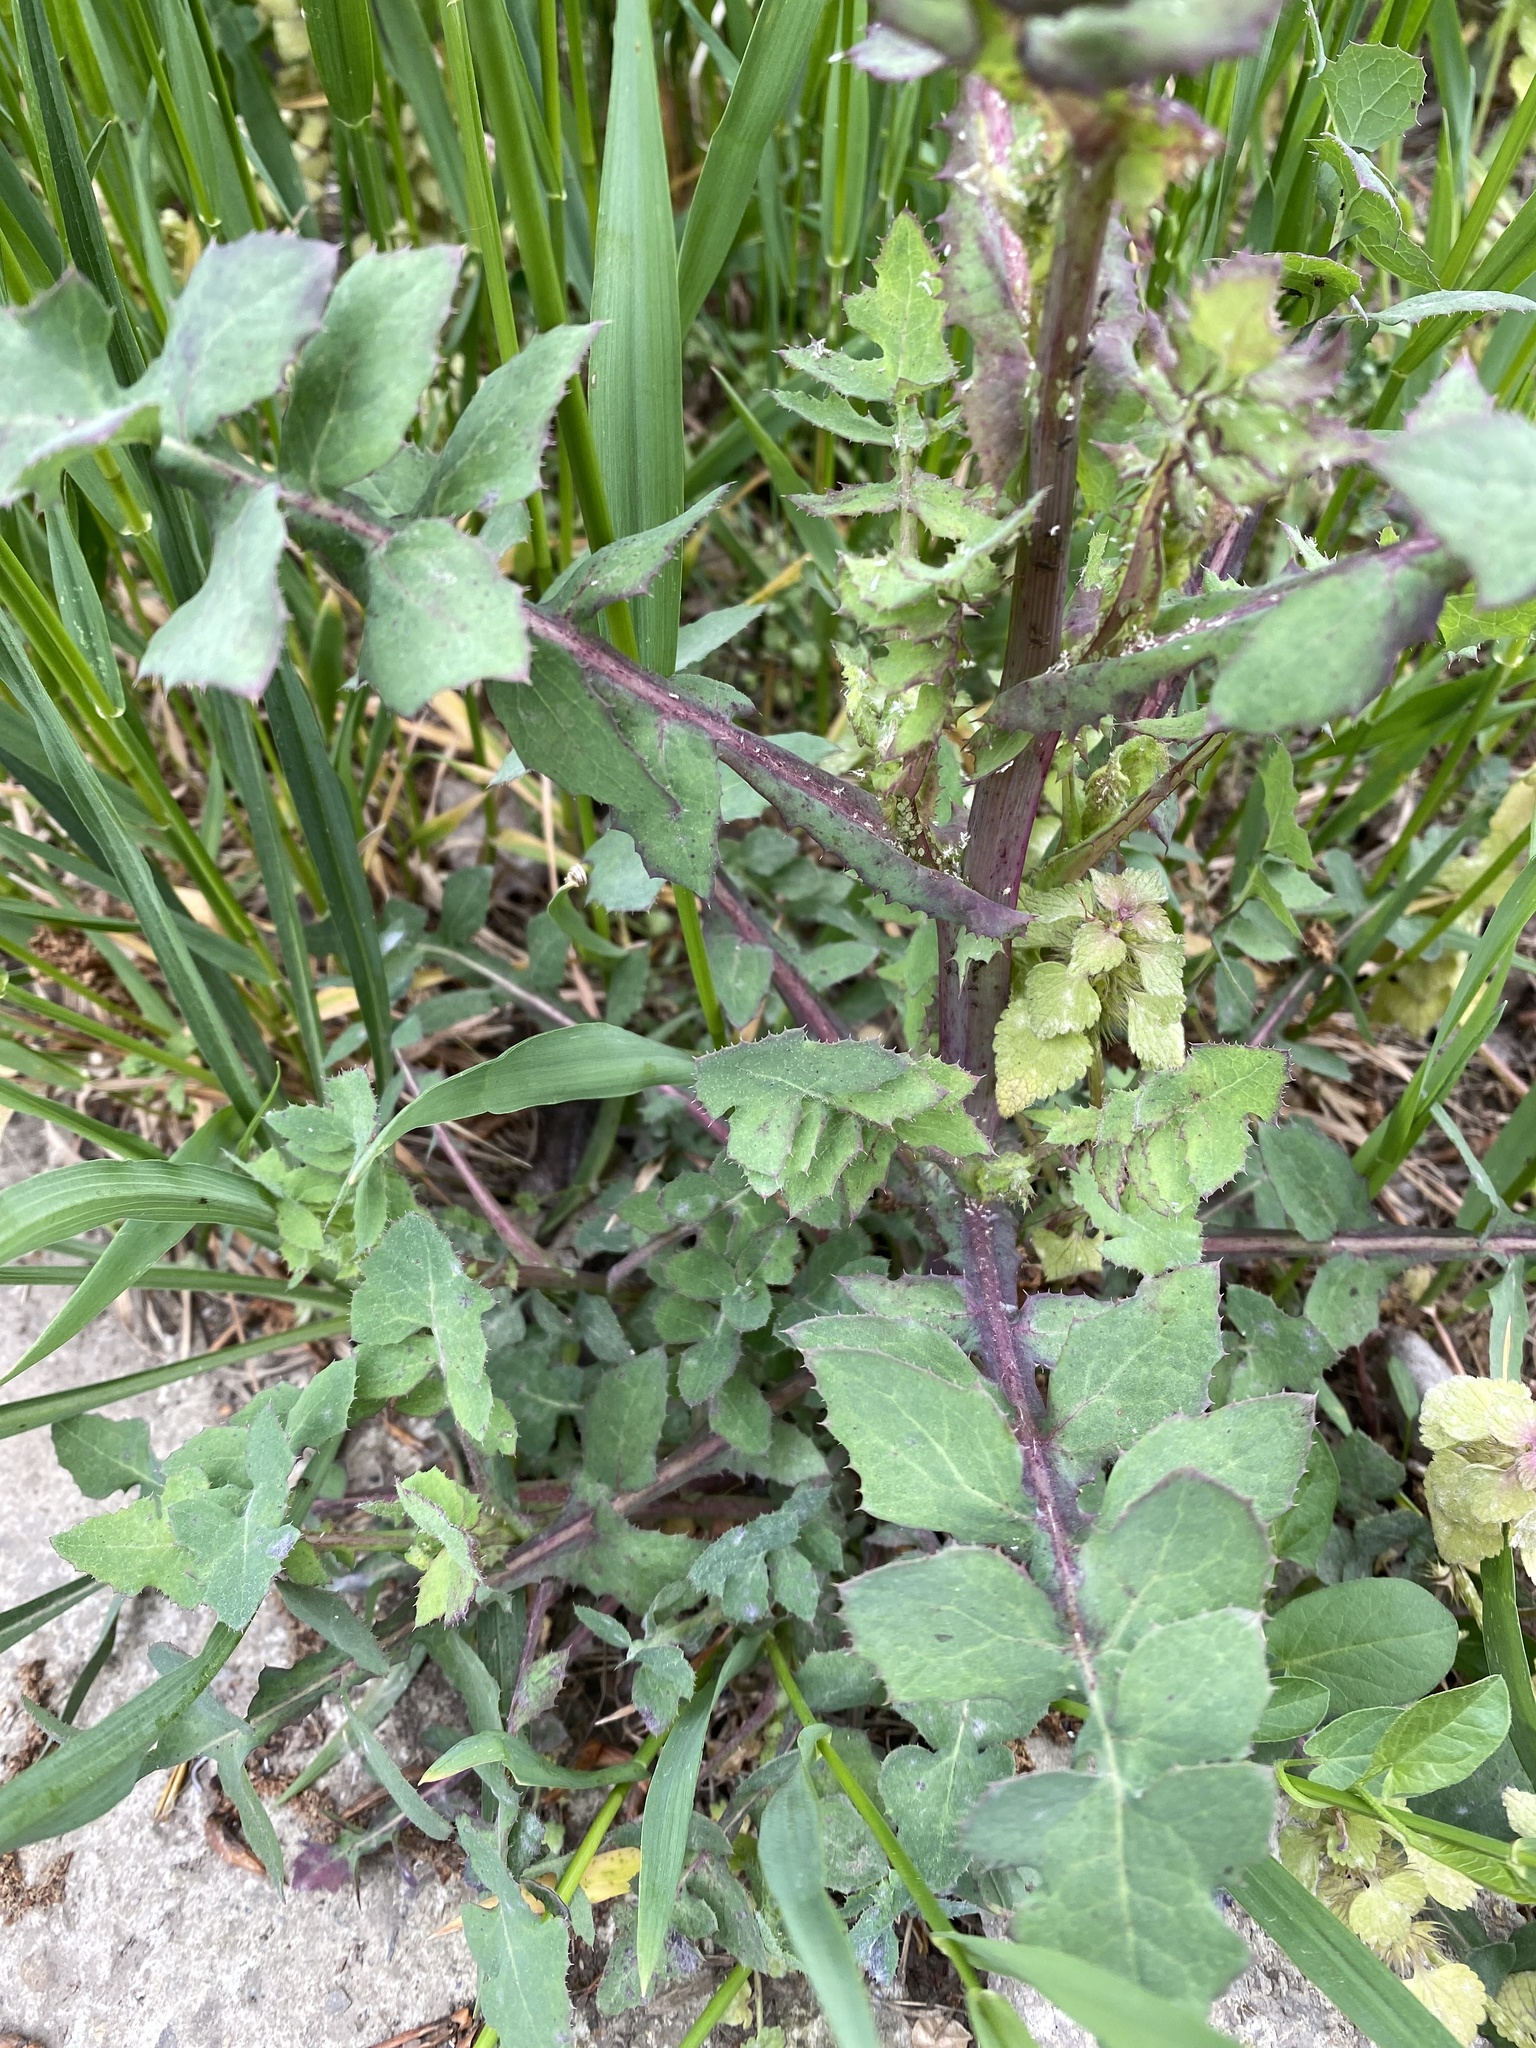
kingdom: Plantae
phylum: Tracheophyta
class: Magnoliopsida
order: Asterales
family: Asteraceae
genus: Sonchus
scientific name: Sonchus oleraceus
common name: Common sowthistle
